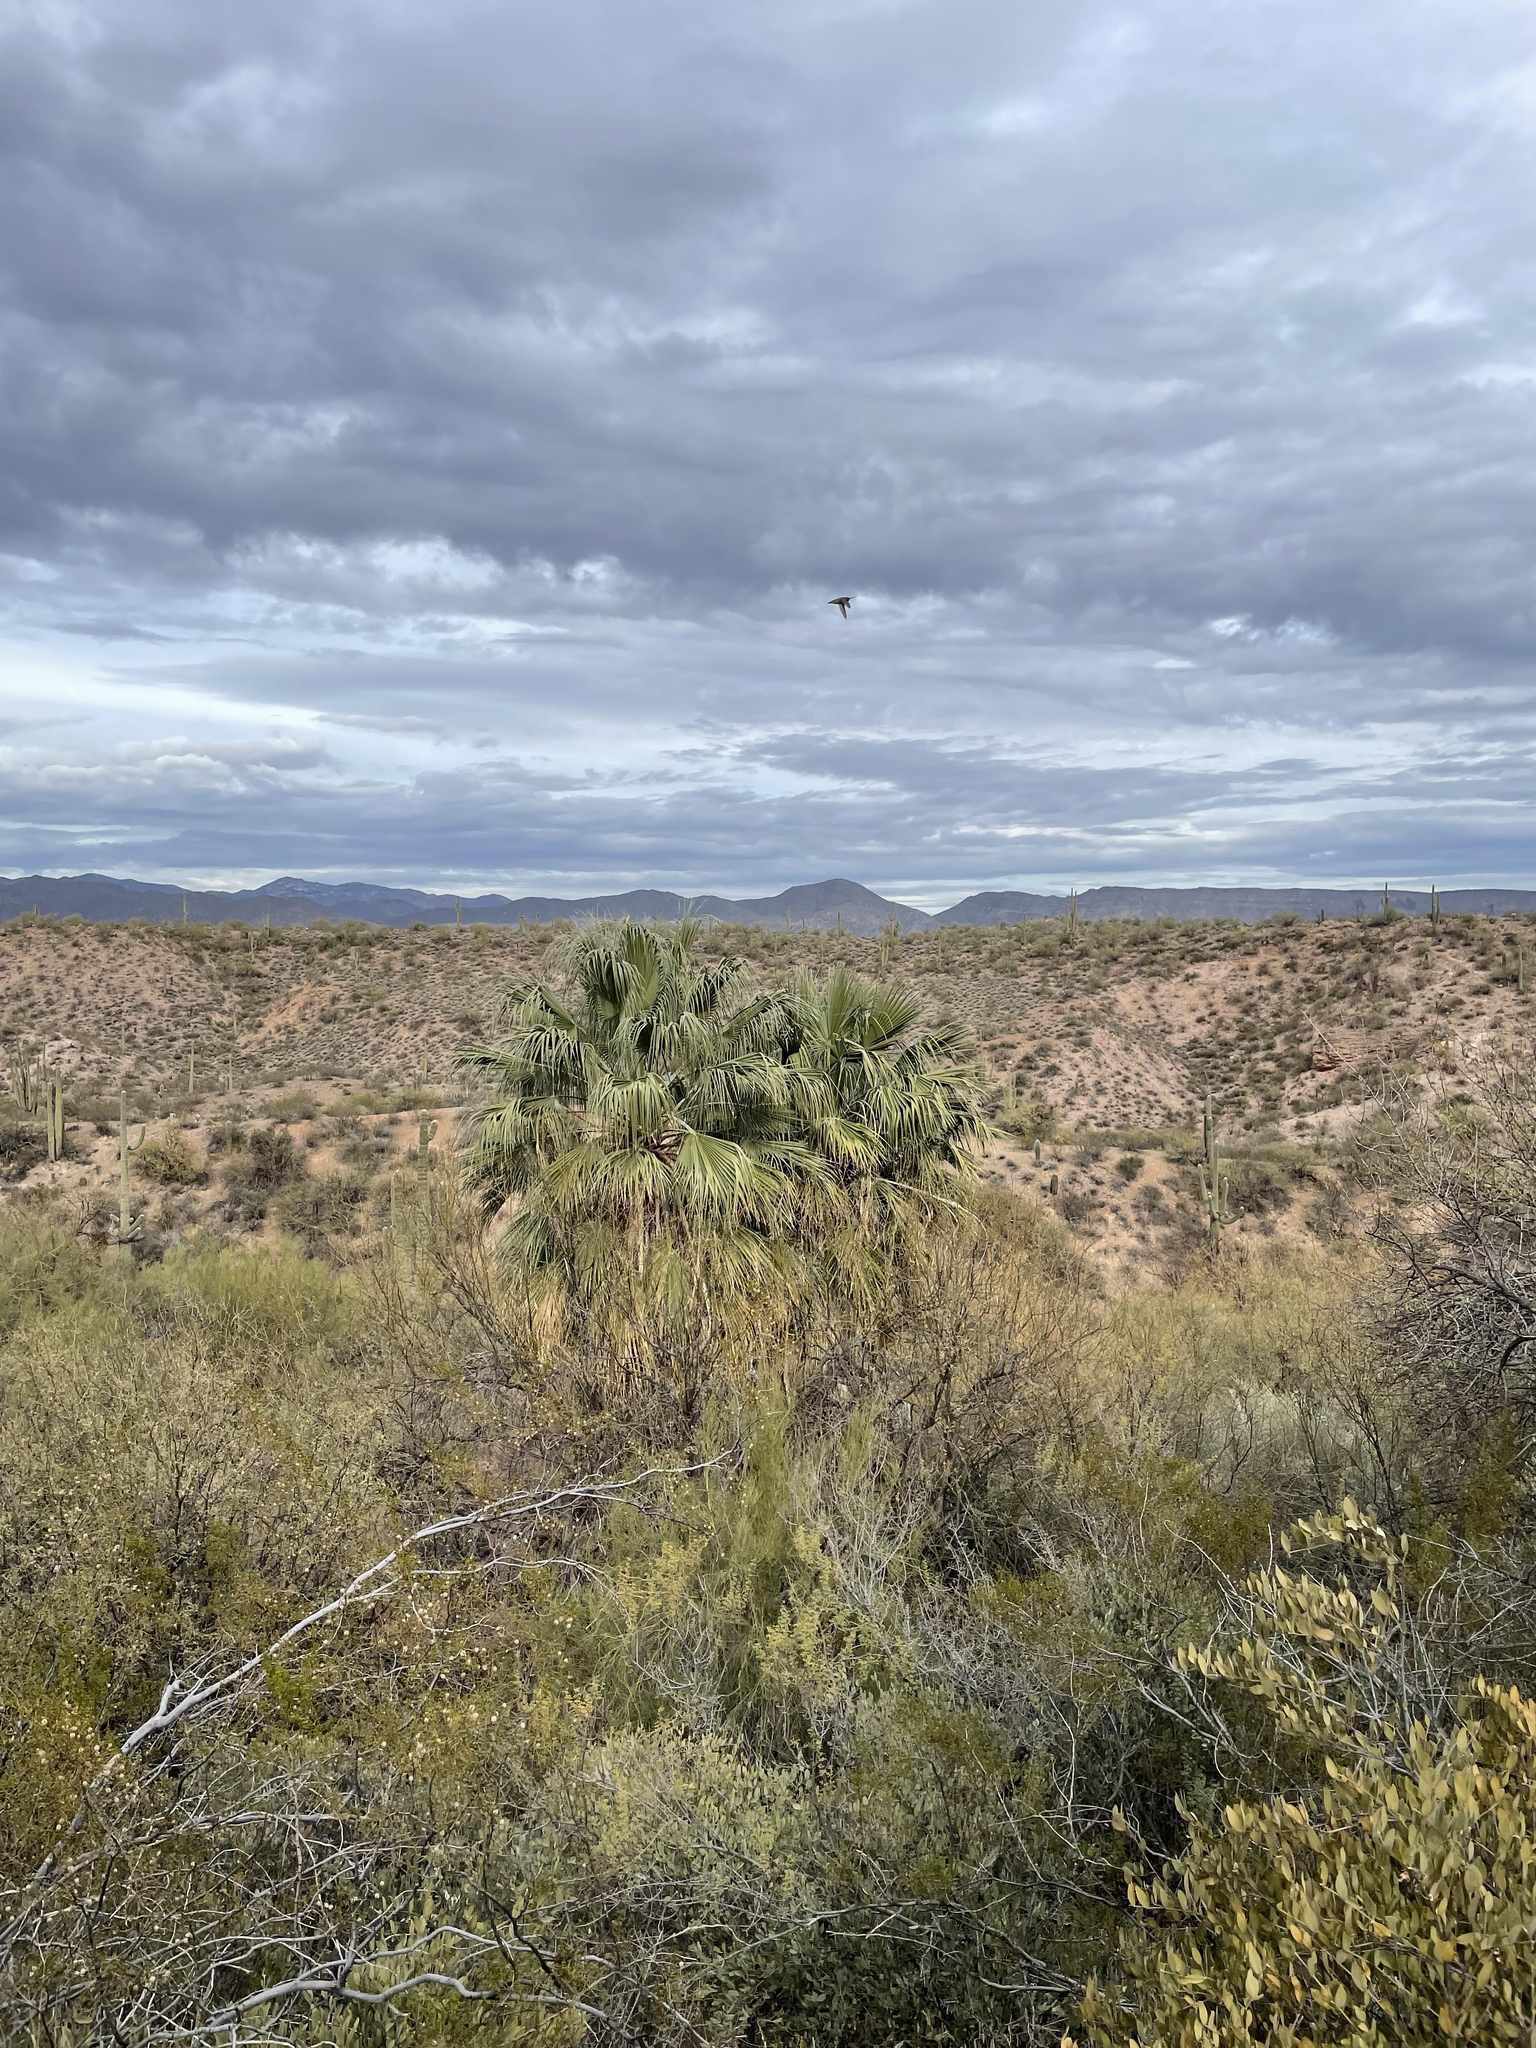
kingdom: Plantae
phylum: Tracheophyta
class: Liliopsida
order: Arecales
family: Arecaceae
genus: Washingtonia
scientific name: Washingtonia filifera
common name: California fan palm
